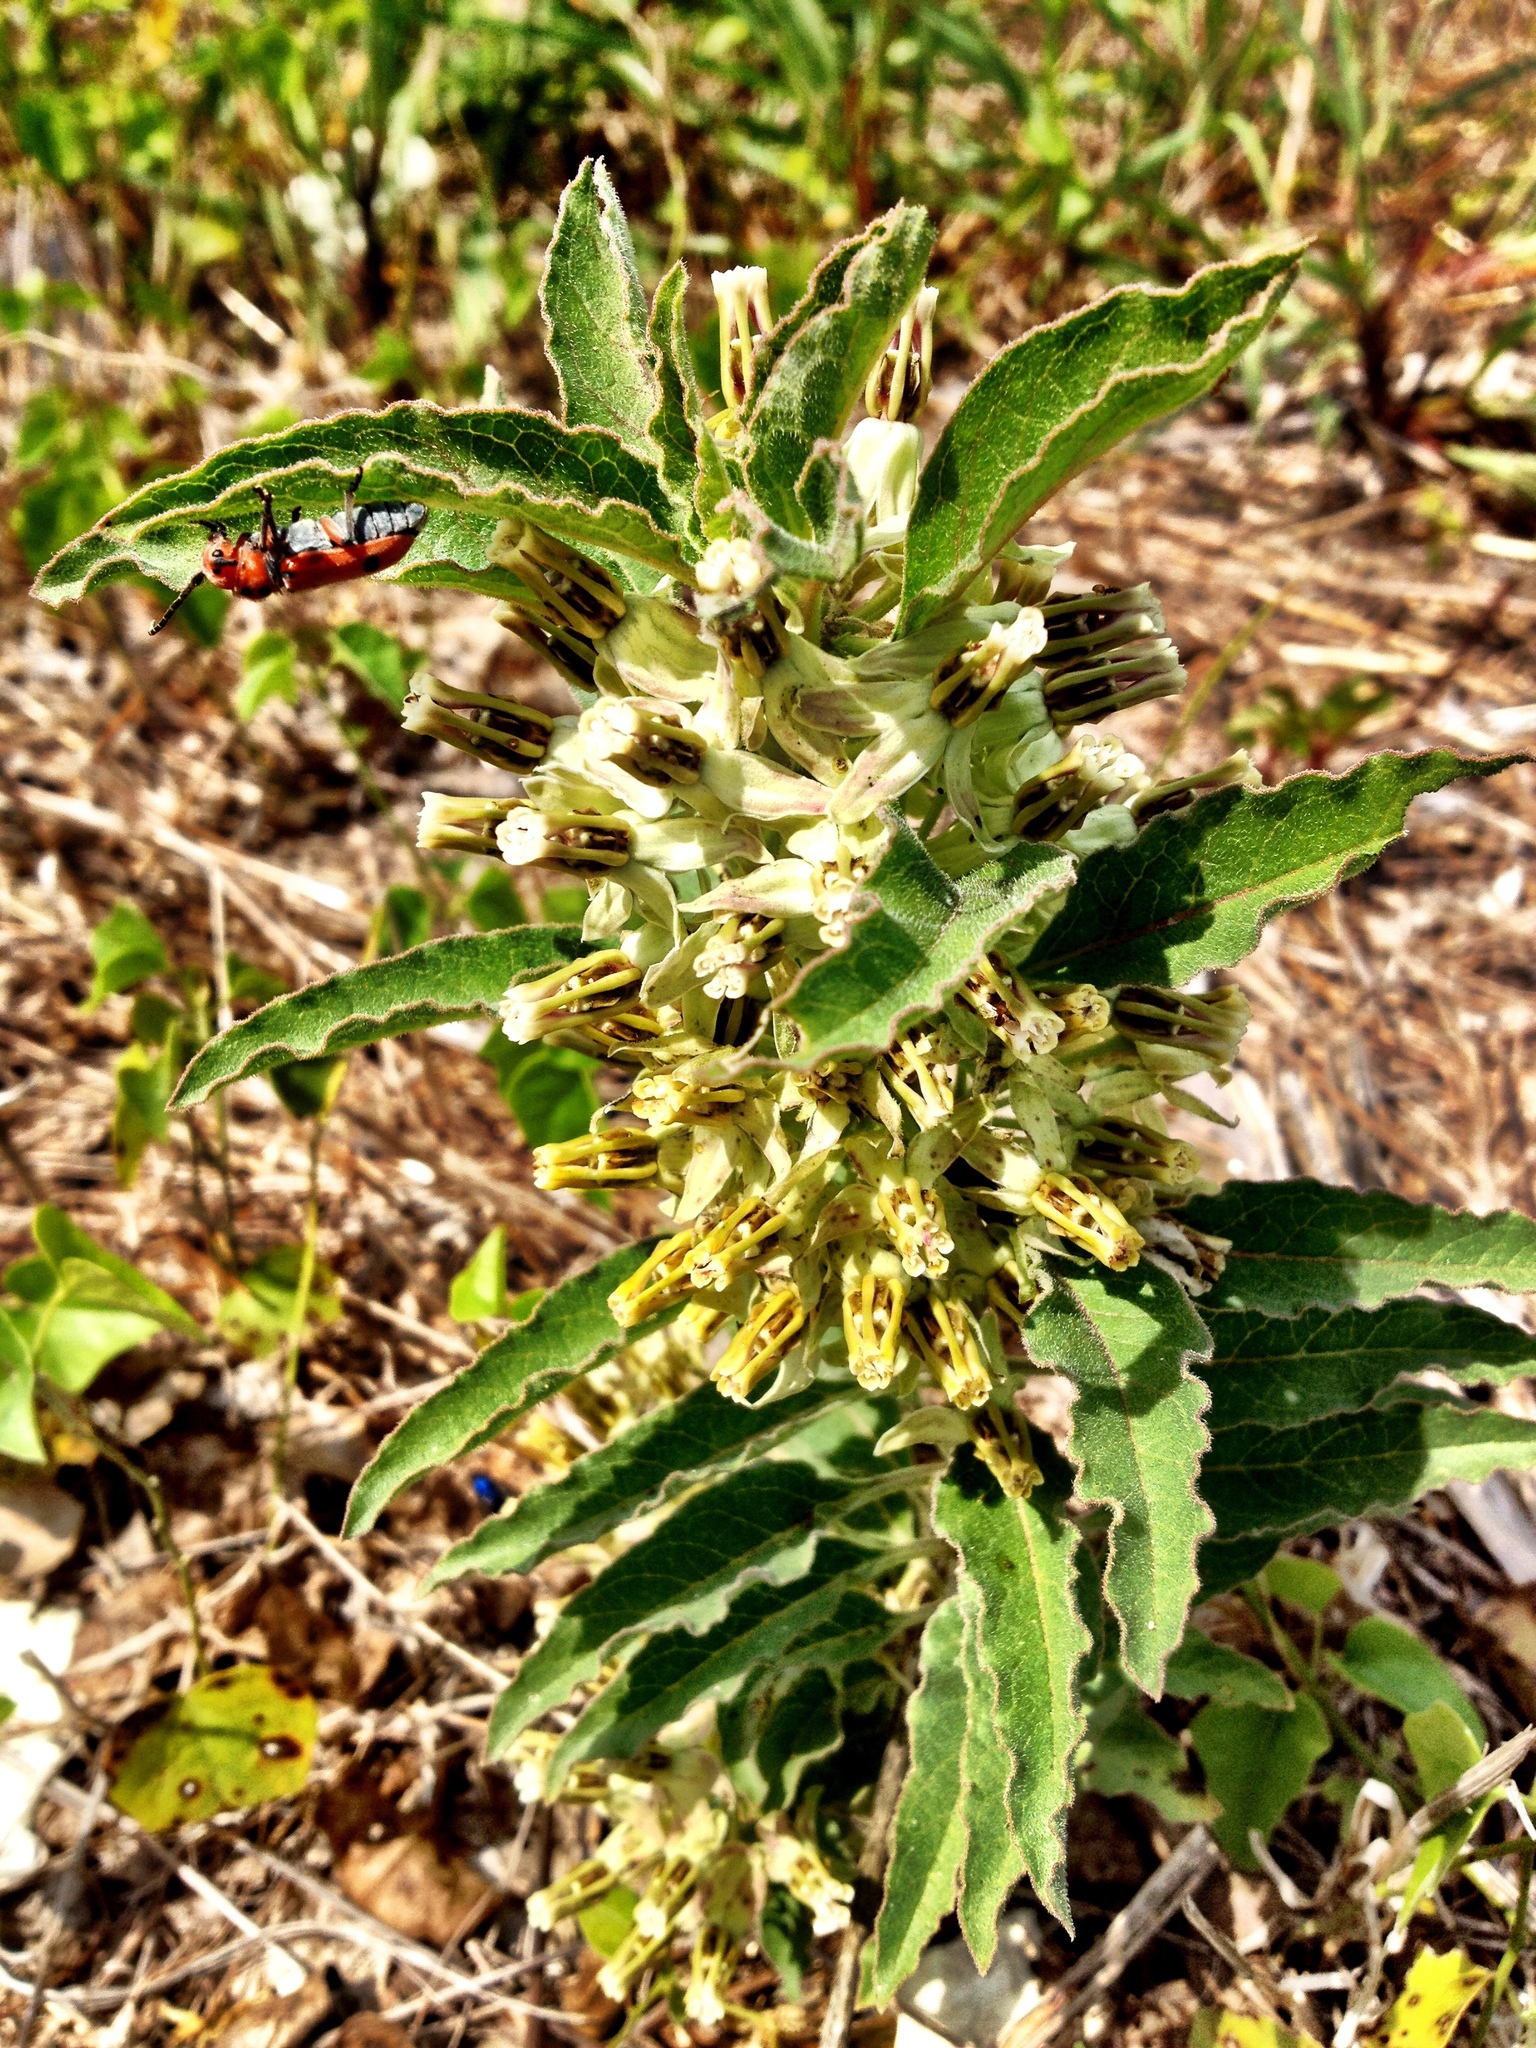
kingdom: Plantae
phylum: Tracheophyta
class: Magnoliopsida
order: Gentianales
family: Apocynaceae
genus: Asclepias
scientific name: Asclepias oenotheroides
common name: Zizotes milkweed
